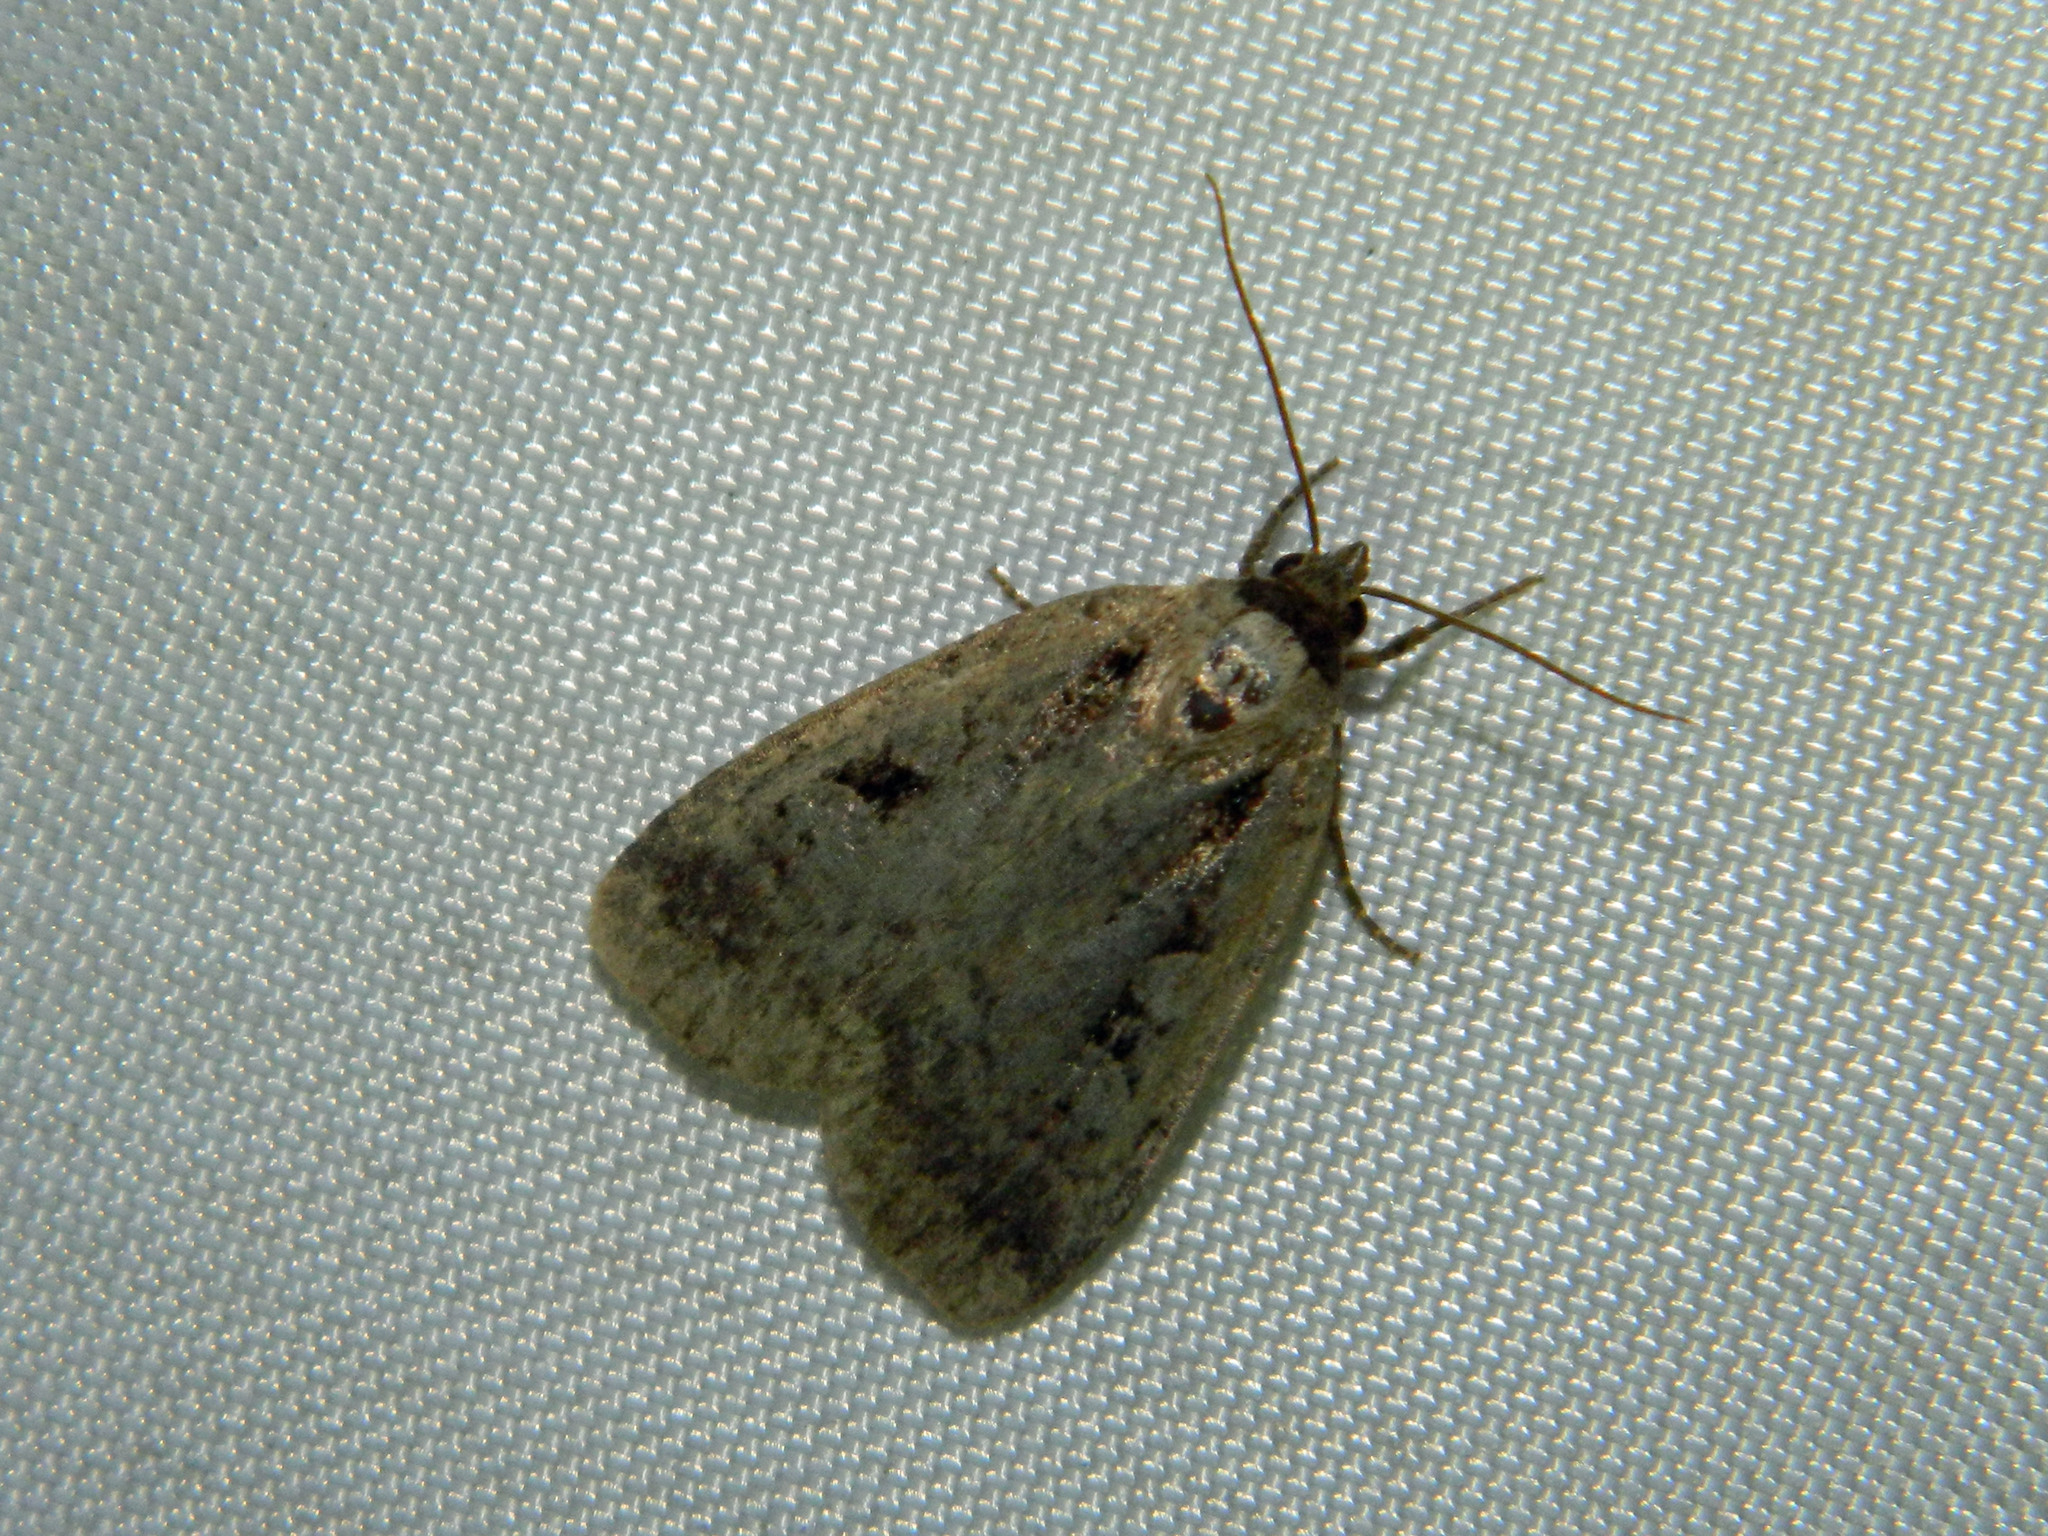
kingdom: Animalia
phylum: Arthropoda
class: Insecta
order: Lepidoptera
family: Noctuidae
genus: Eueretagrotis
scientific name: Eueretagrotis perattentus
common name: Two-spot dart moth
